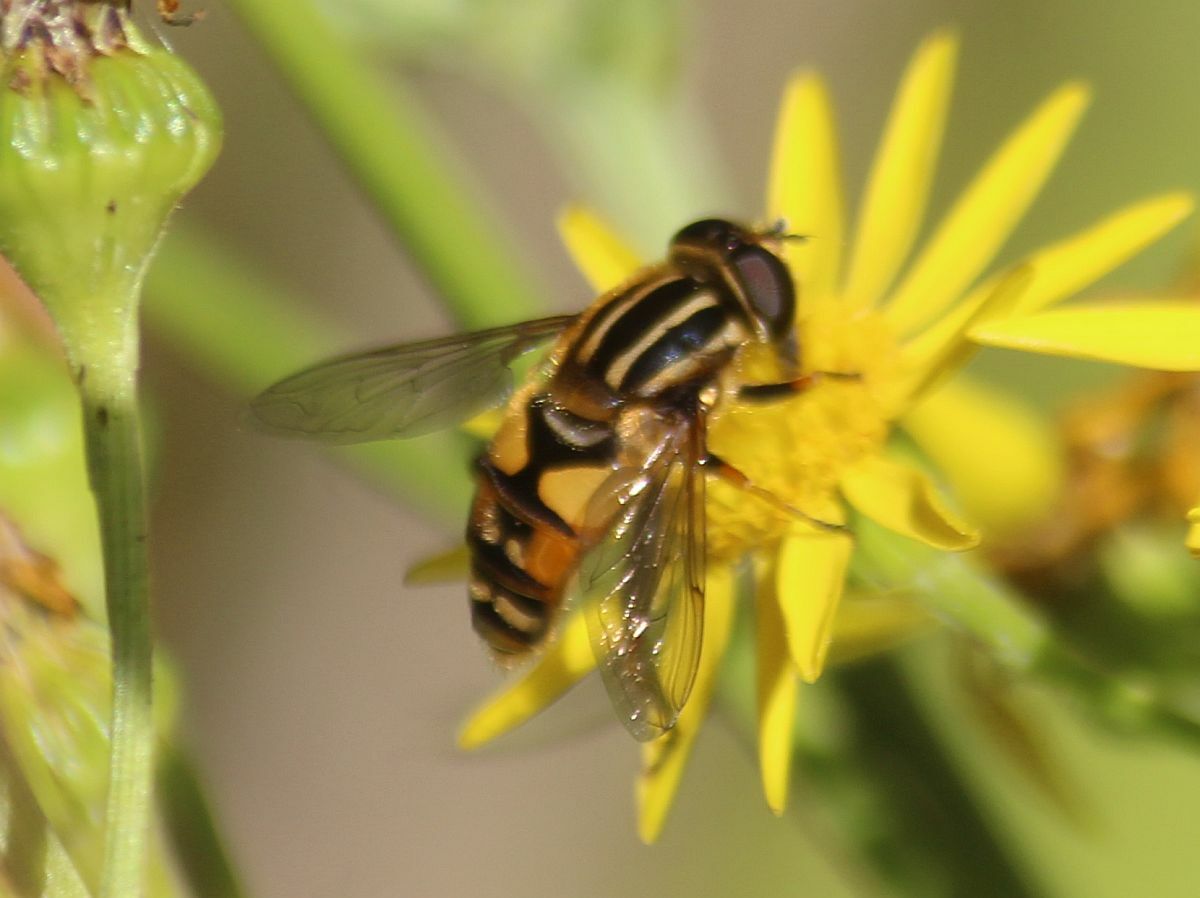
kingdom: Animalia
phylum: Arthropoda
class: Insecta
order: Diptera
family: Syrphidae
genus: Helophilus
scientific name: Helophilus
